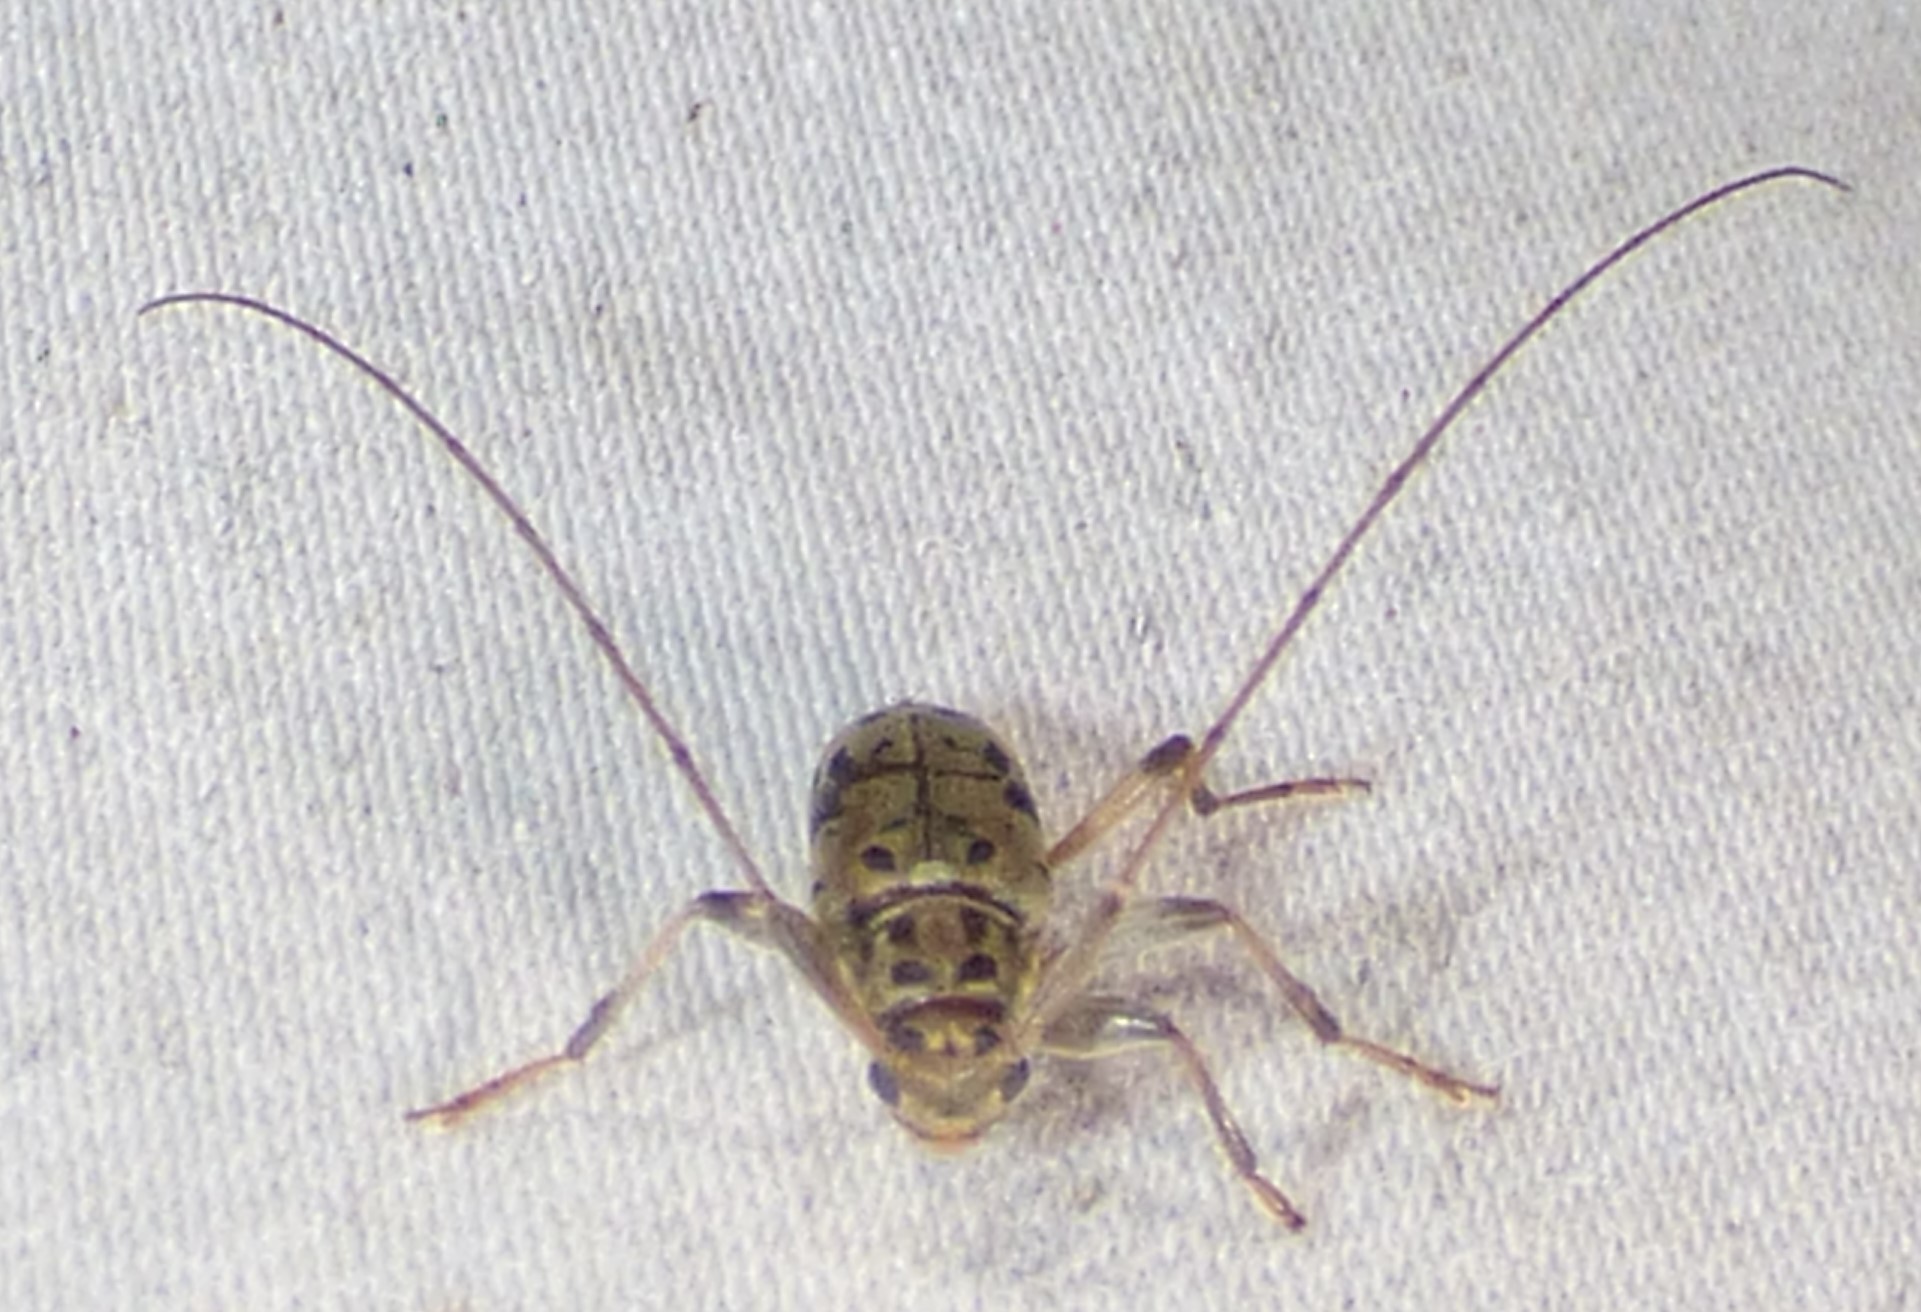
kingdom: Animalia
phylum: Arthropoda
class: Insecta
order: Coleoptera
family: Cerambycidae
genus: Lepturges
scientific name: Lepturges pictus
